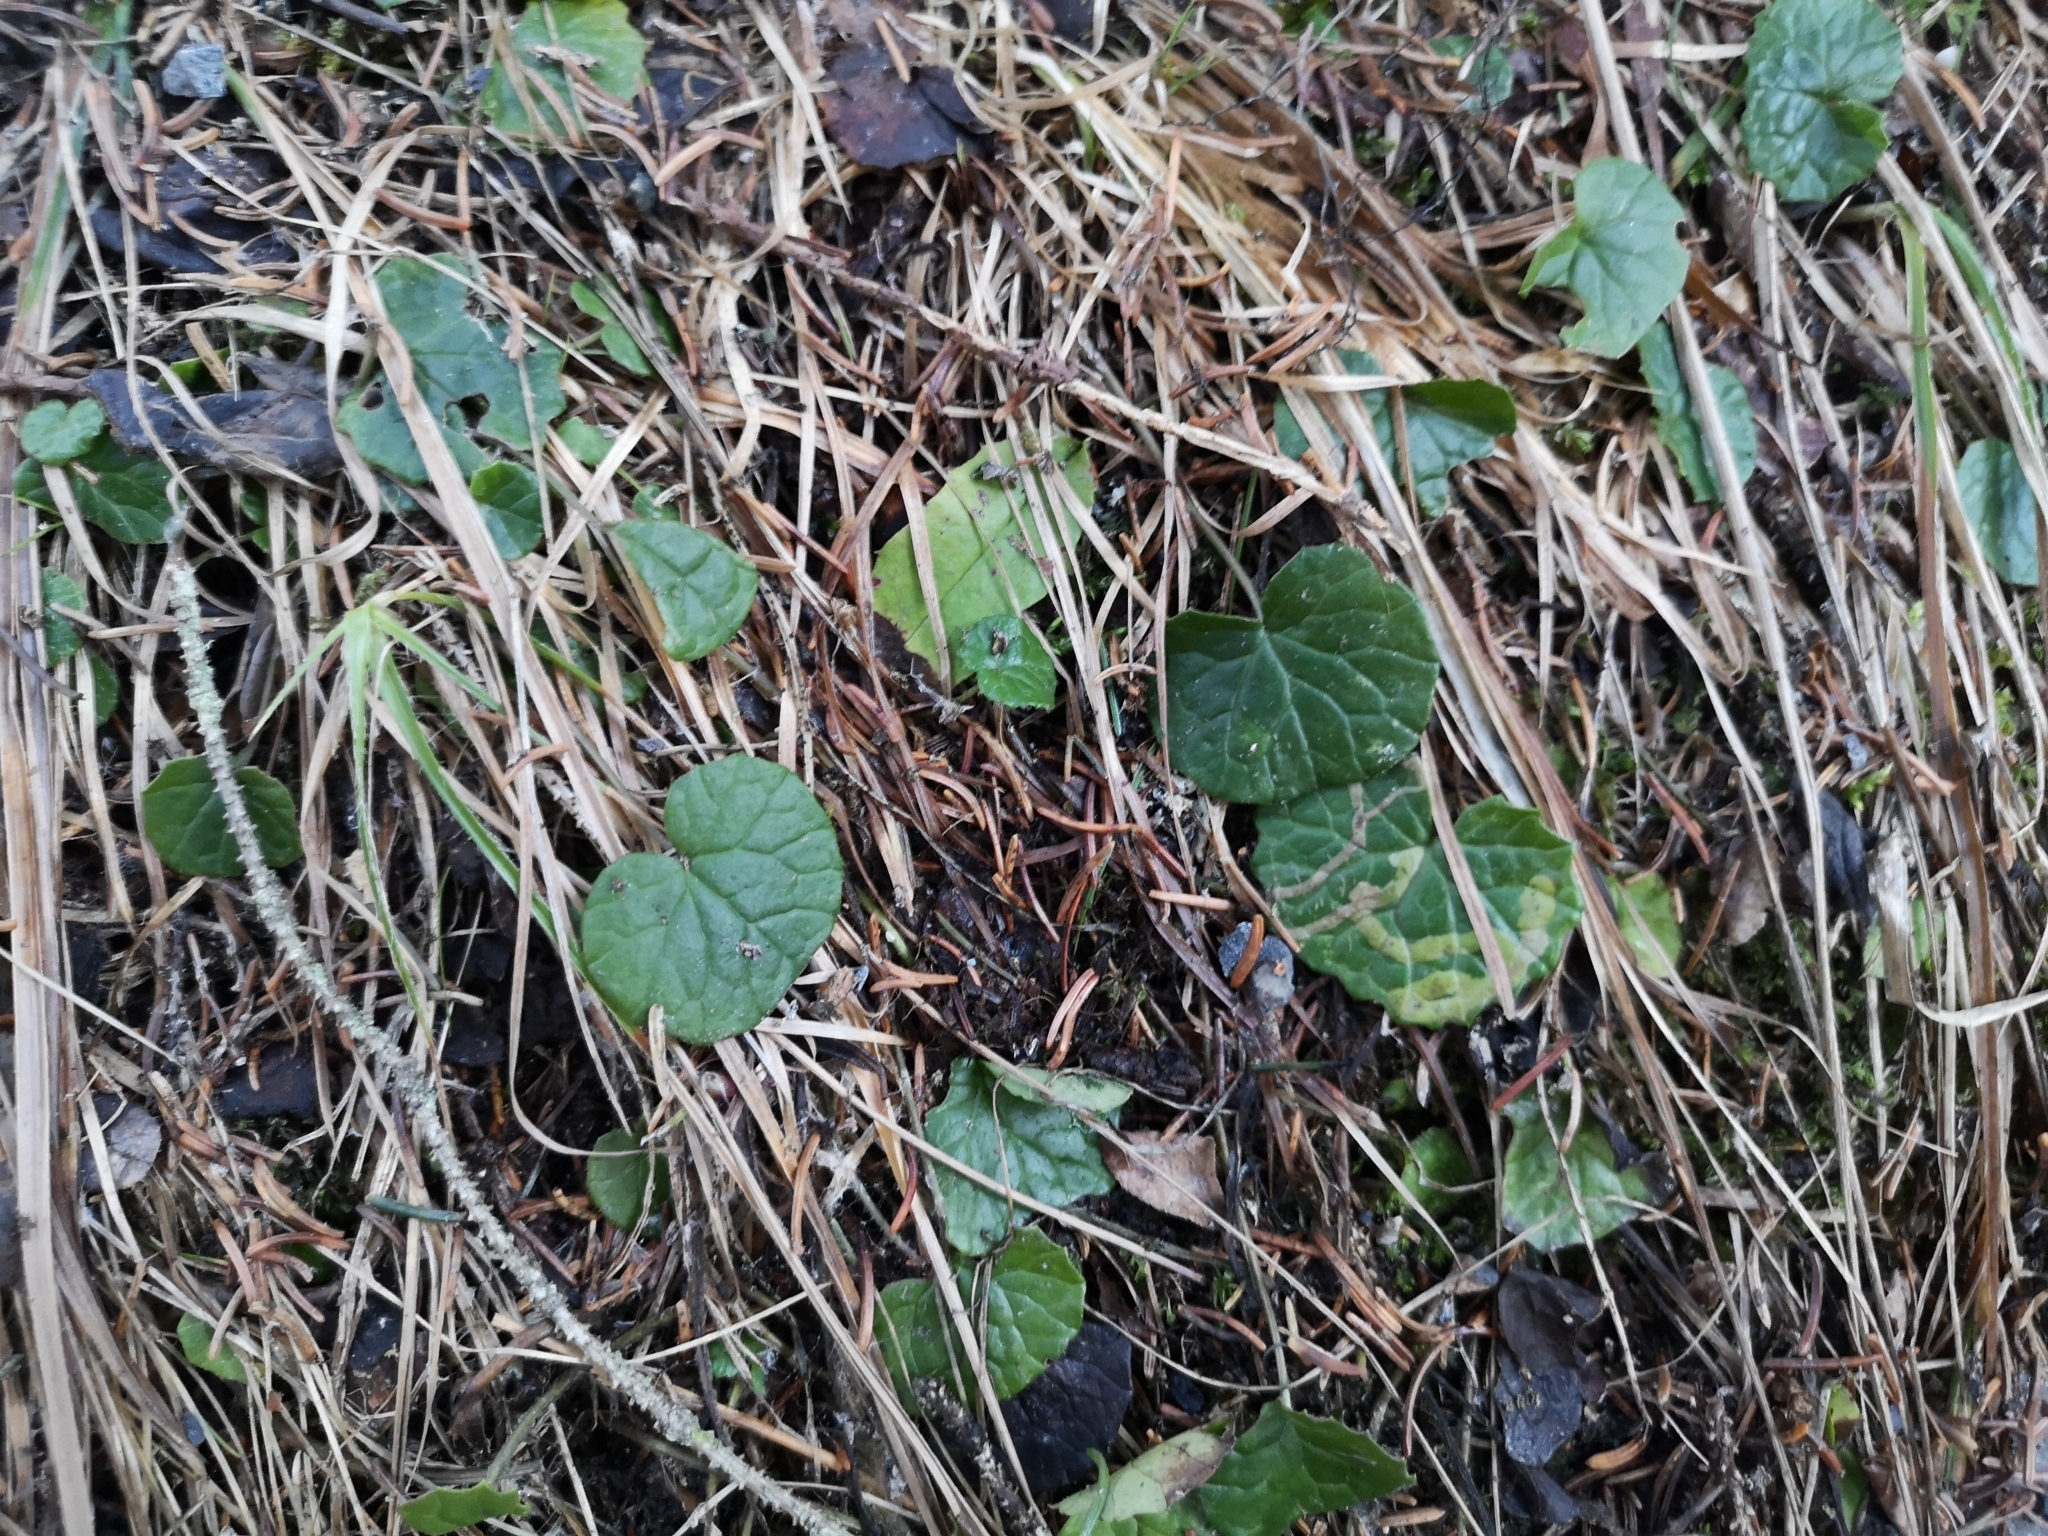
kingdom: Plantae
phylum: Tracheophyta
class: Magnoliopsida
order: Asterales
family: Asteraceae
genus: Homogyne
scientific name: Homogyne alpina
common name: Purple colt's-foot
